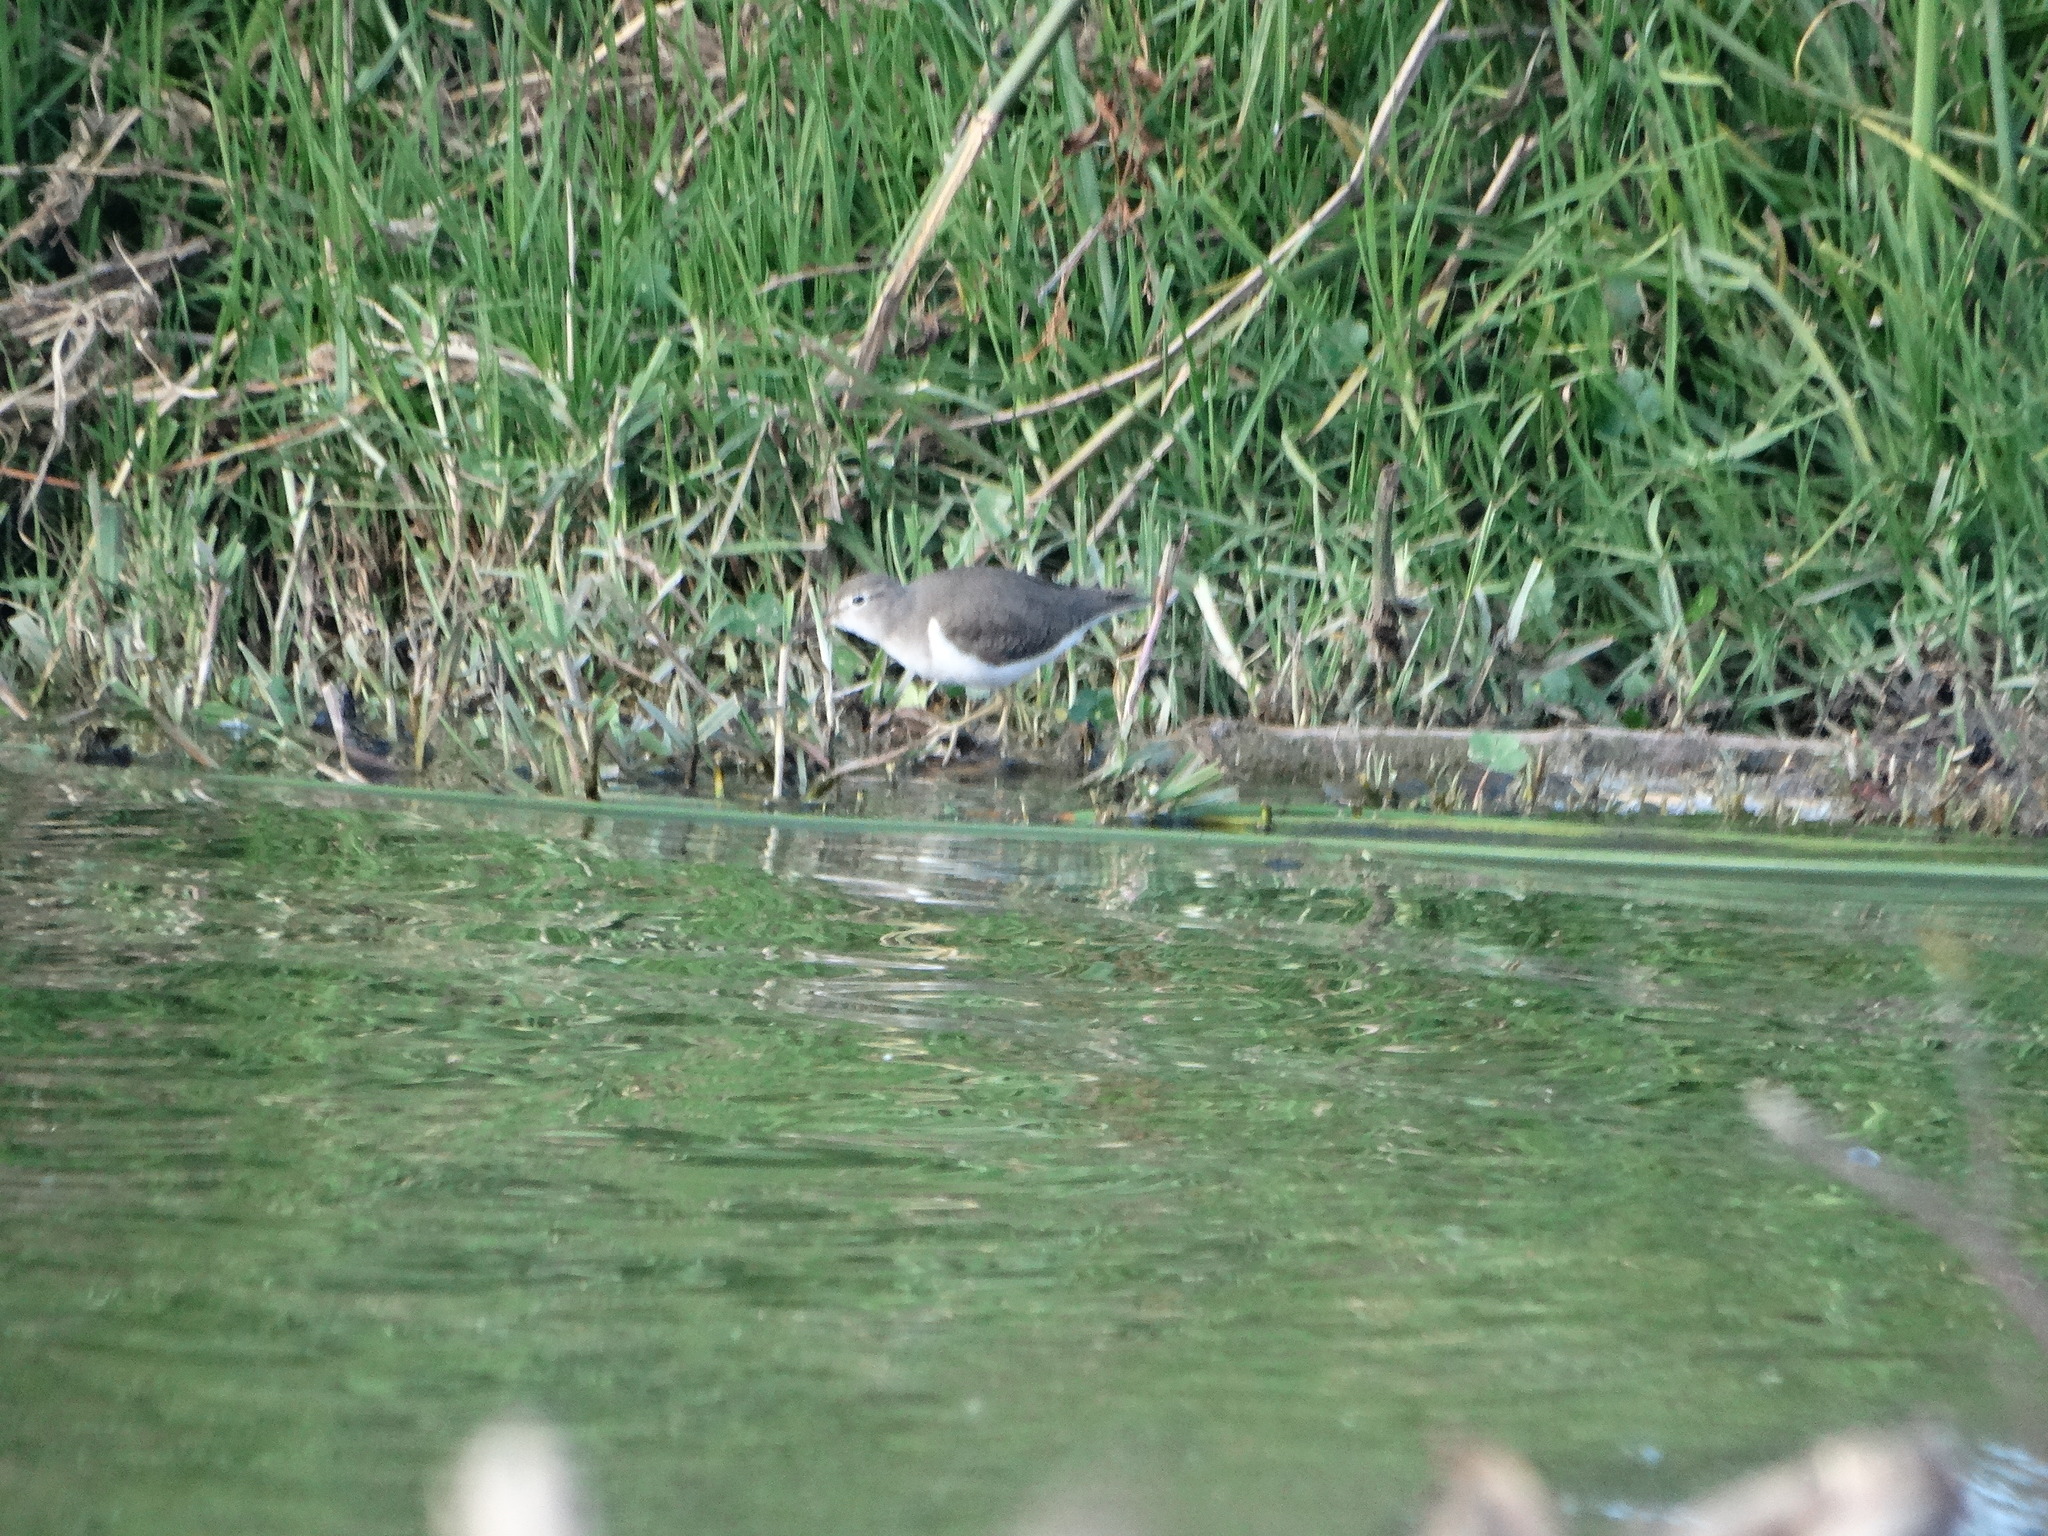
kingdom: Animalia
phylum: Chordata
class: Aves
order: Charadriiformes
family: Scolopacidae
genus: Actitis
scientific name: Actitis macularius
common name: Spotted sandpiper
